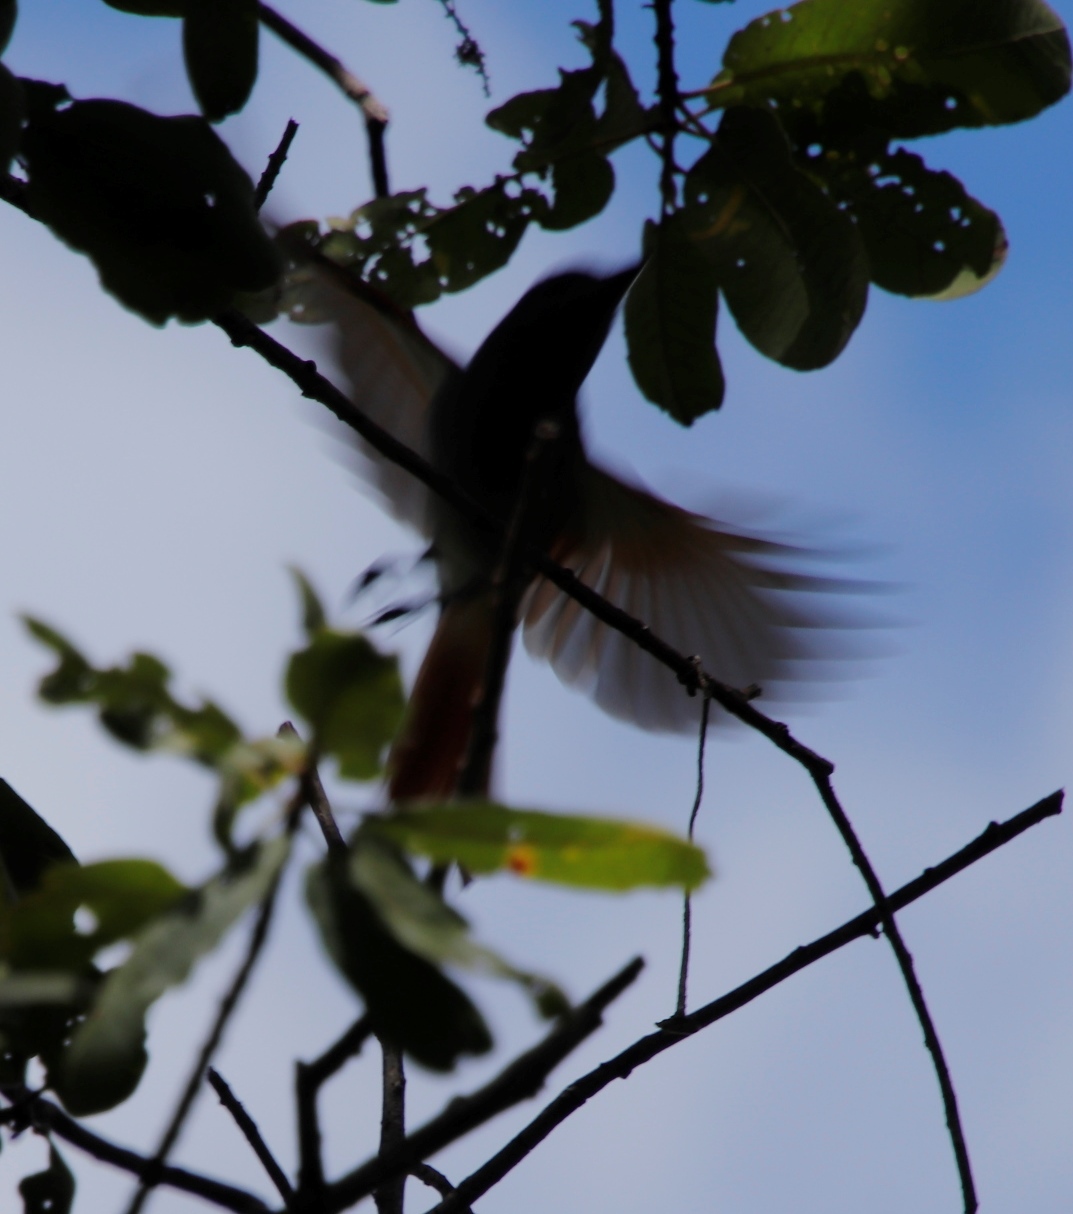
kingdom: Animalia
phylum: Chordata
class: Aves
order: Passeriformes
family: Monarchidae
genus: Terpsiphone
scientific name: Terpsiphone viridis
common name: African paradise flycatcher
